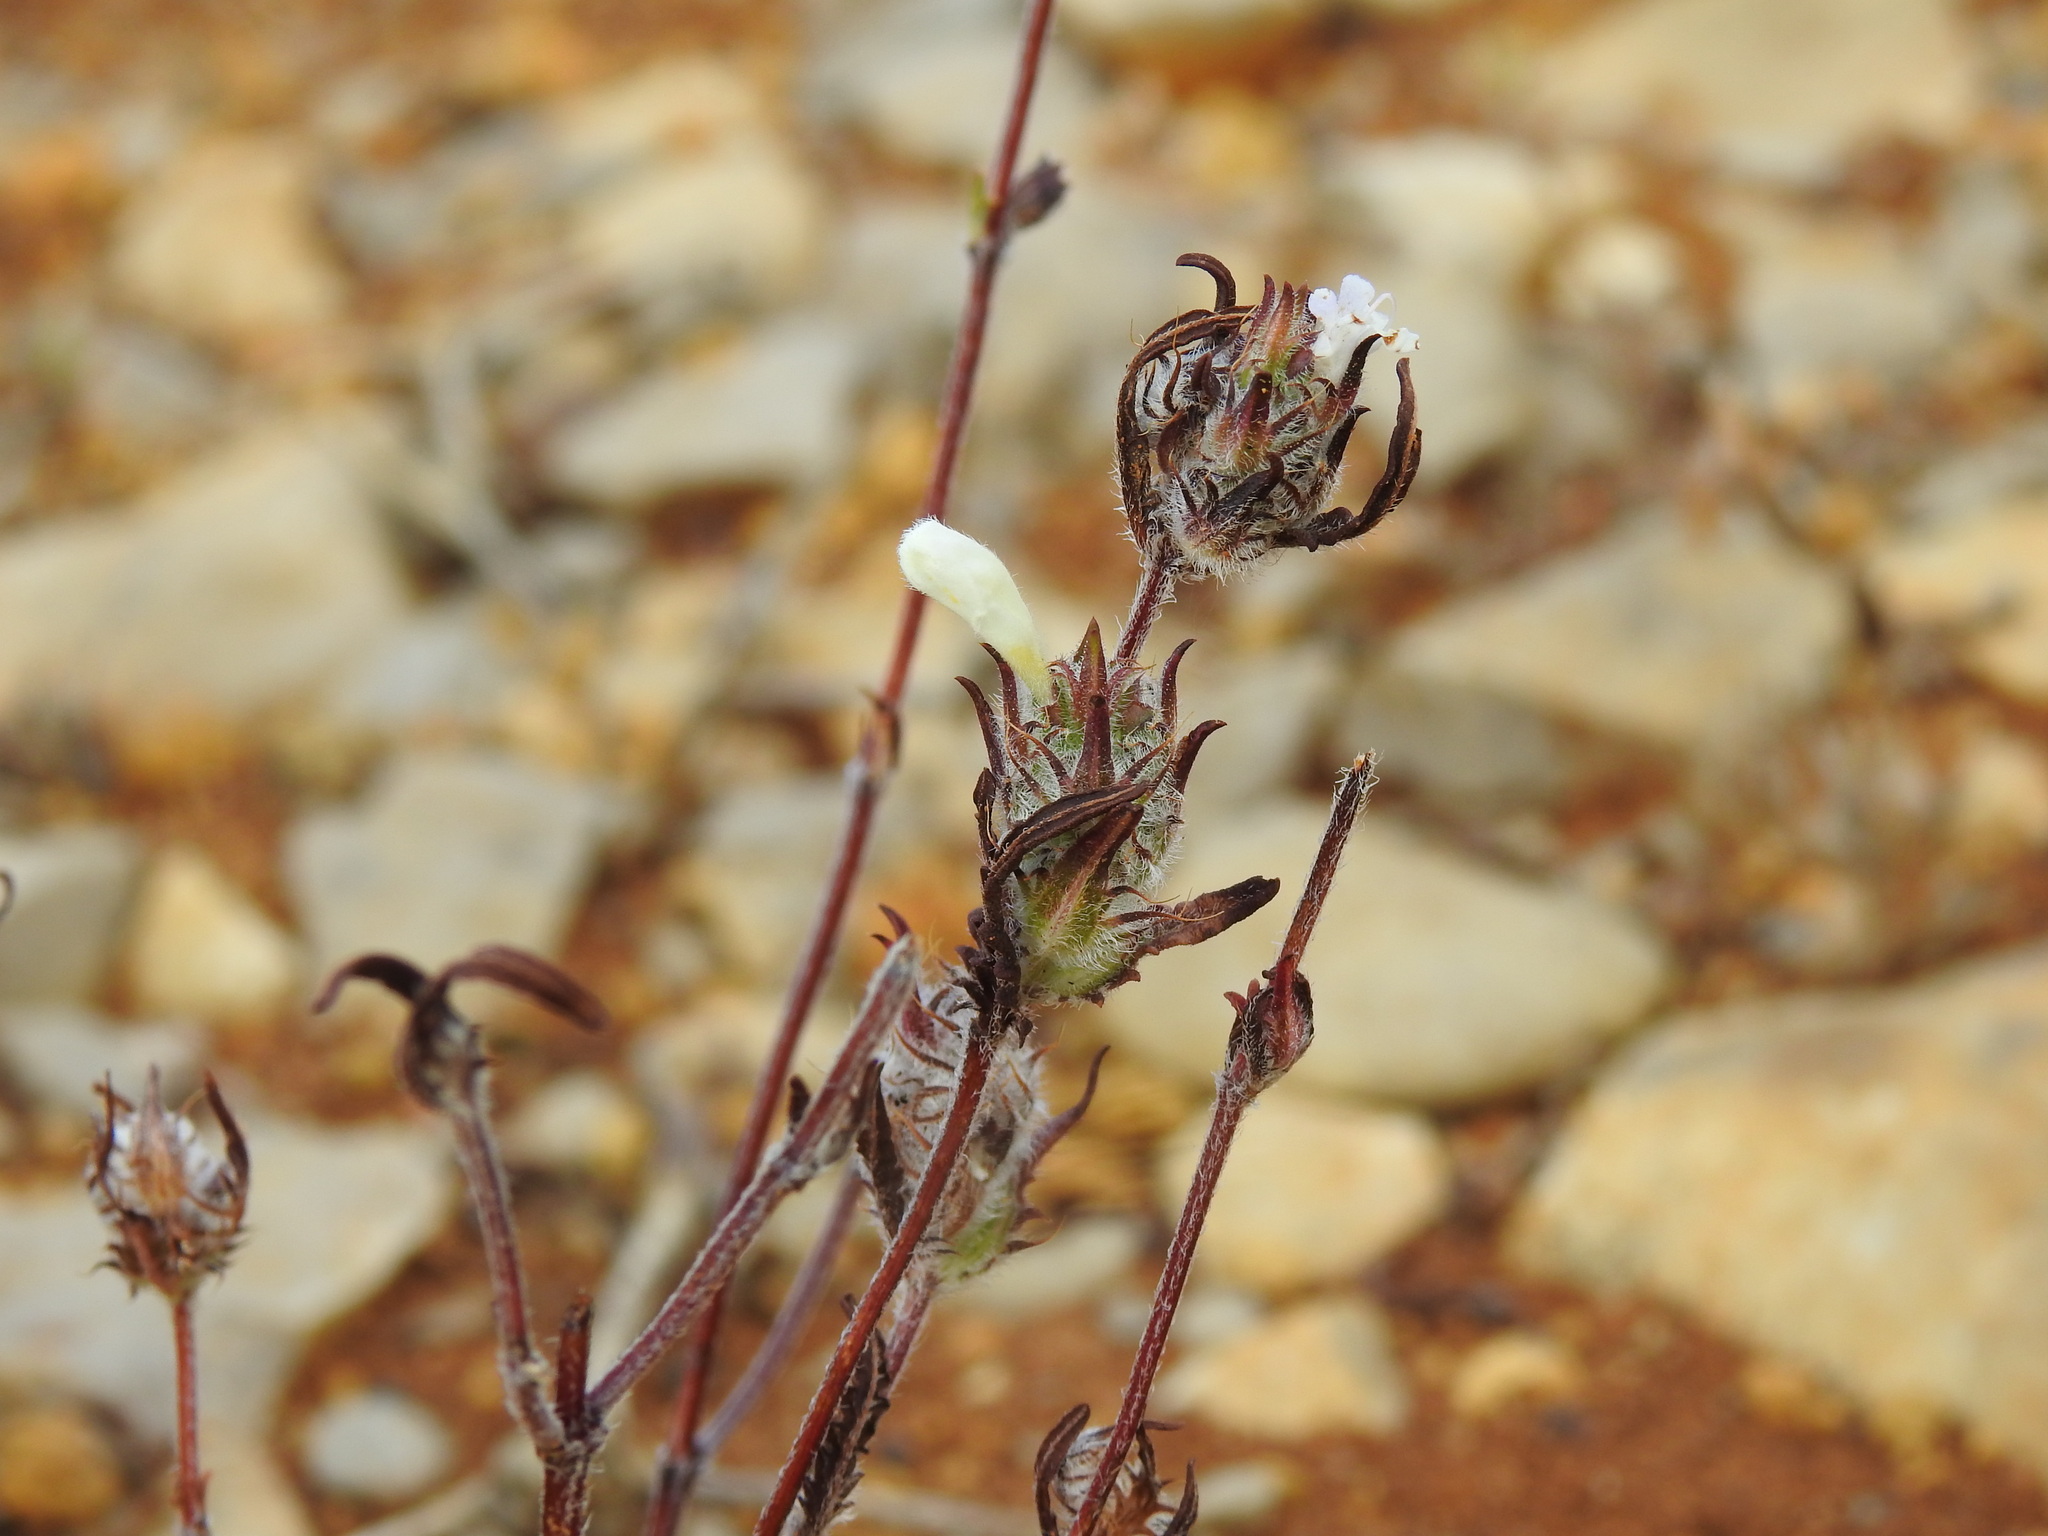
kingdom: Plantae
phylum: Tracheophyta
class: Magnoliopsida
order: Lamiales
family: Lamiaceae
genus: Cleonia
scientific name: Cleonia lusitanica
